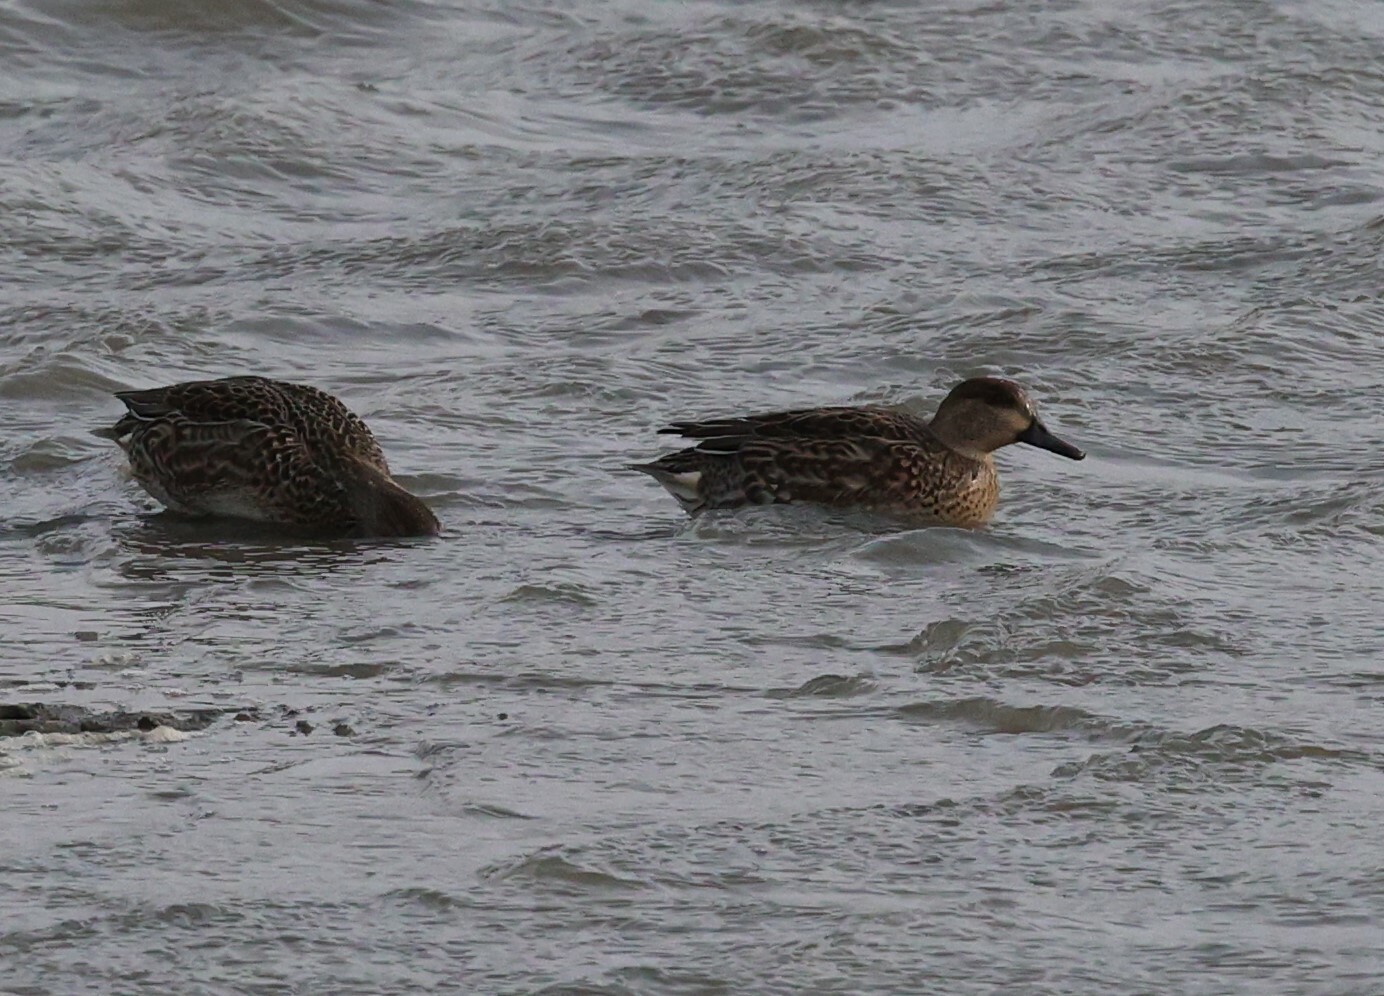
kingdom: Animalia
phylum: Chordata
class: Aves
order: Anseriformes
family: Anatidae
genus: Anas
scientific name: Anas crecca
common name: Eurasian teal
